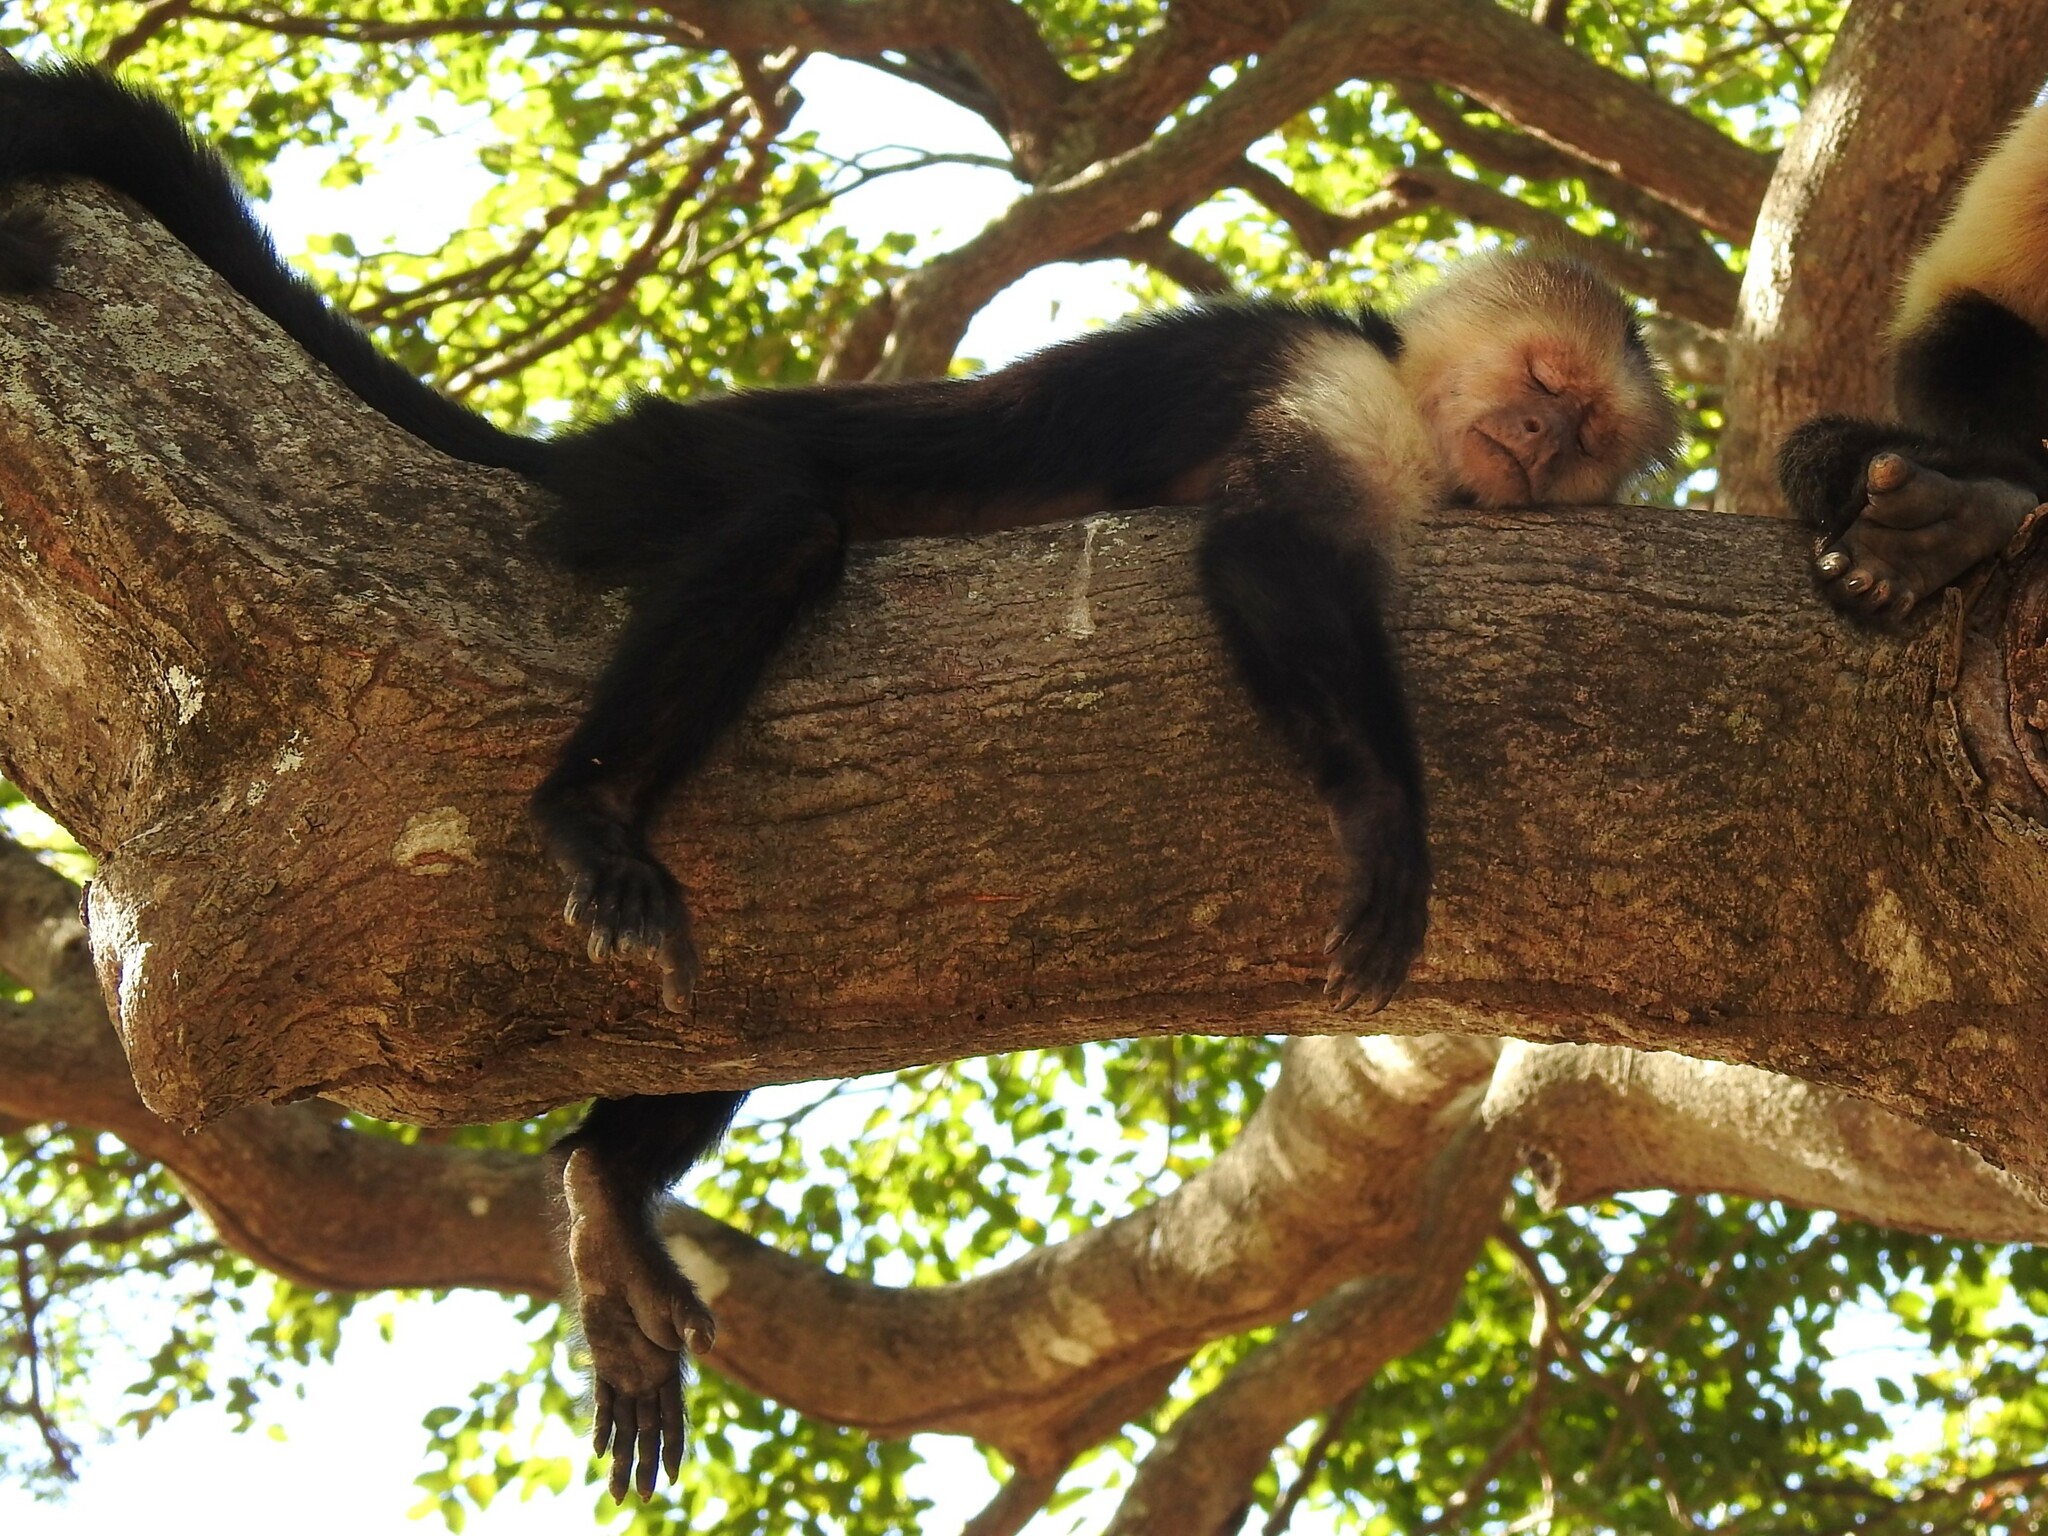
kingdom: Animalia
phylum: Chordata
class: Mammalia
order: Primates
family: Cebidae
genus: Cebus
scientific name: Cebus imitator
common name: Panamanian white-faced capuchin
